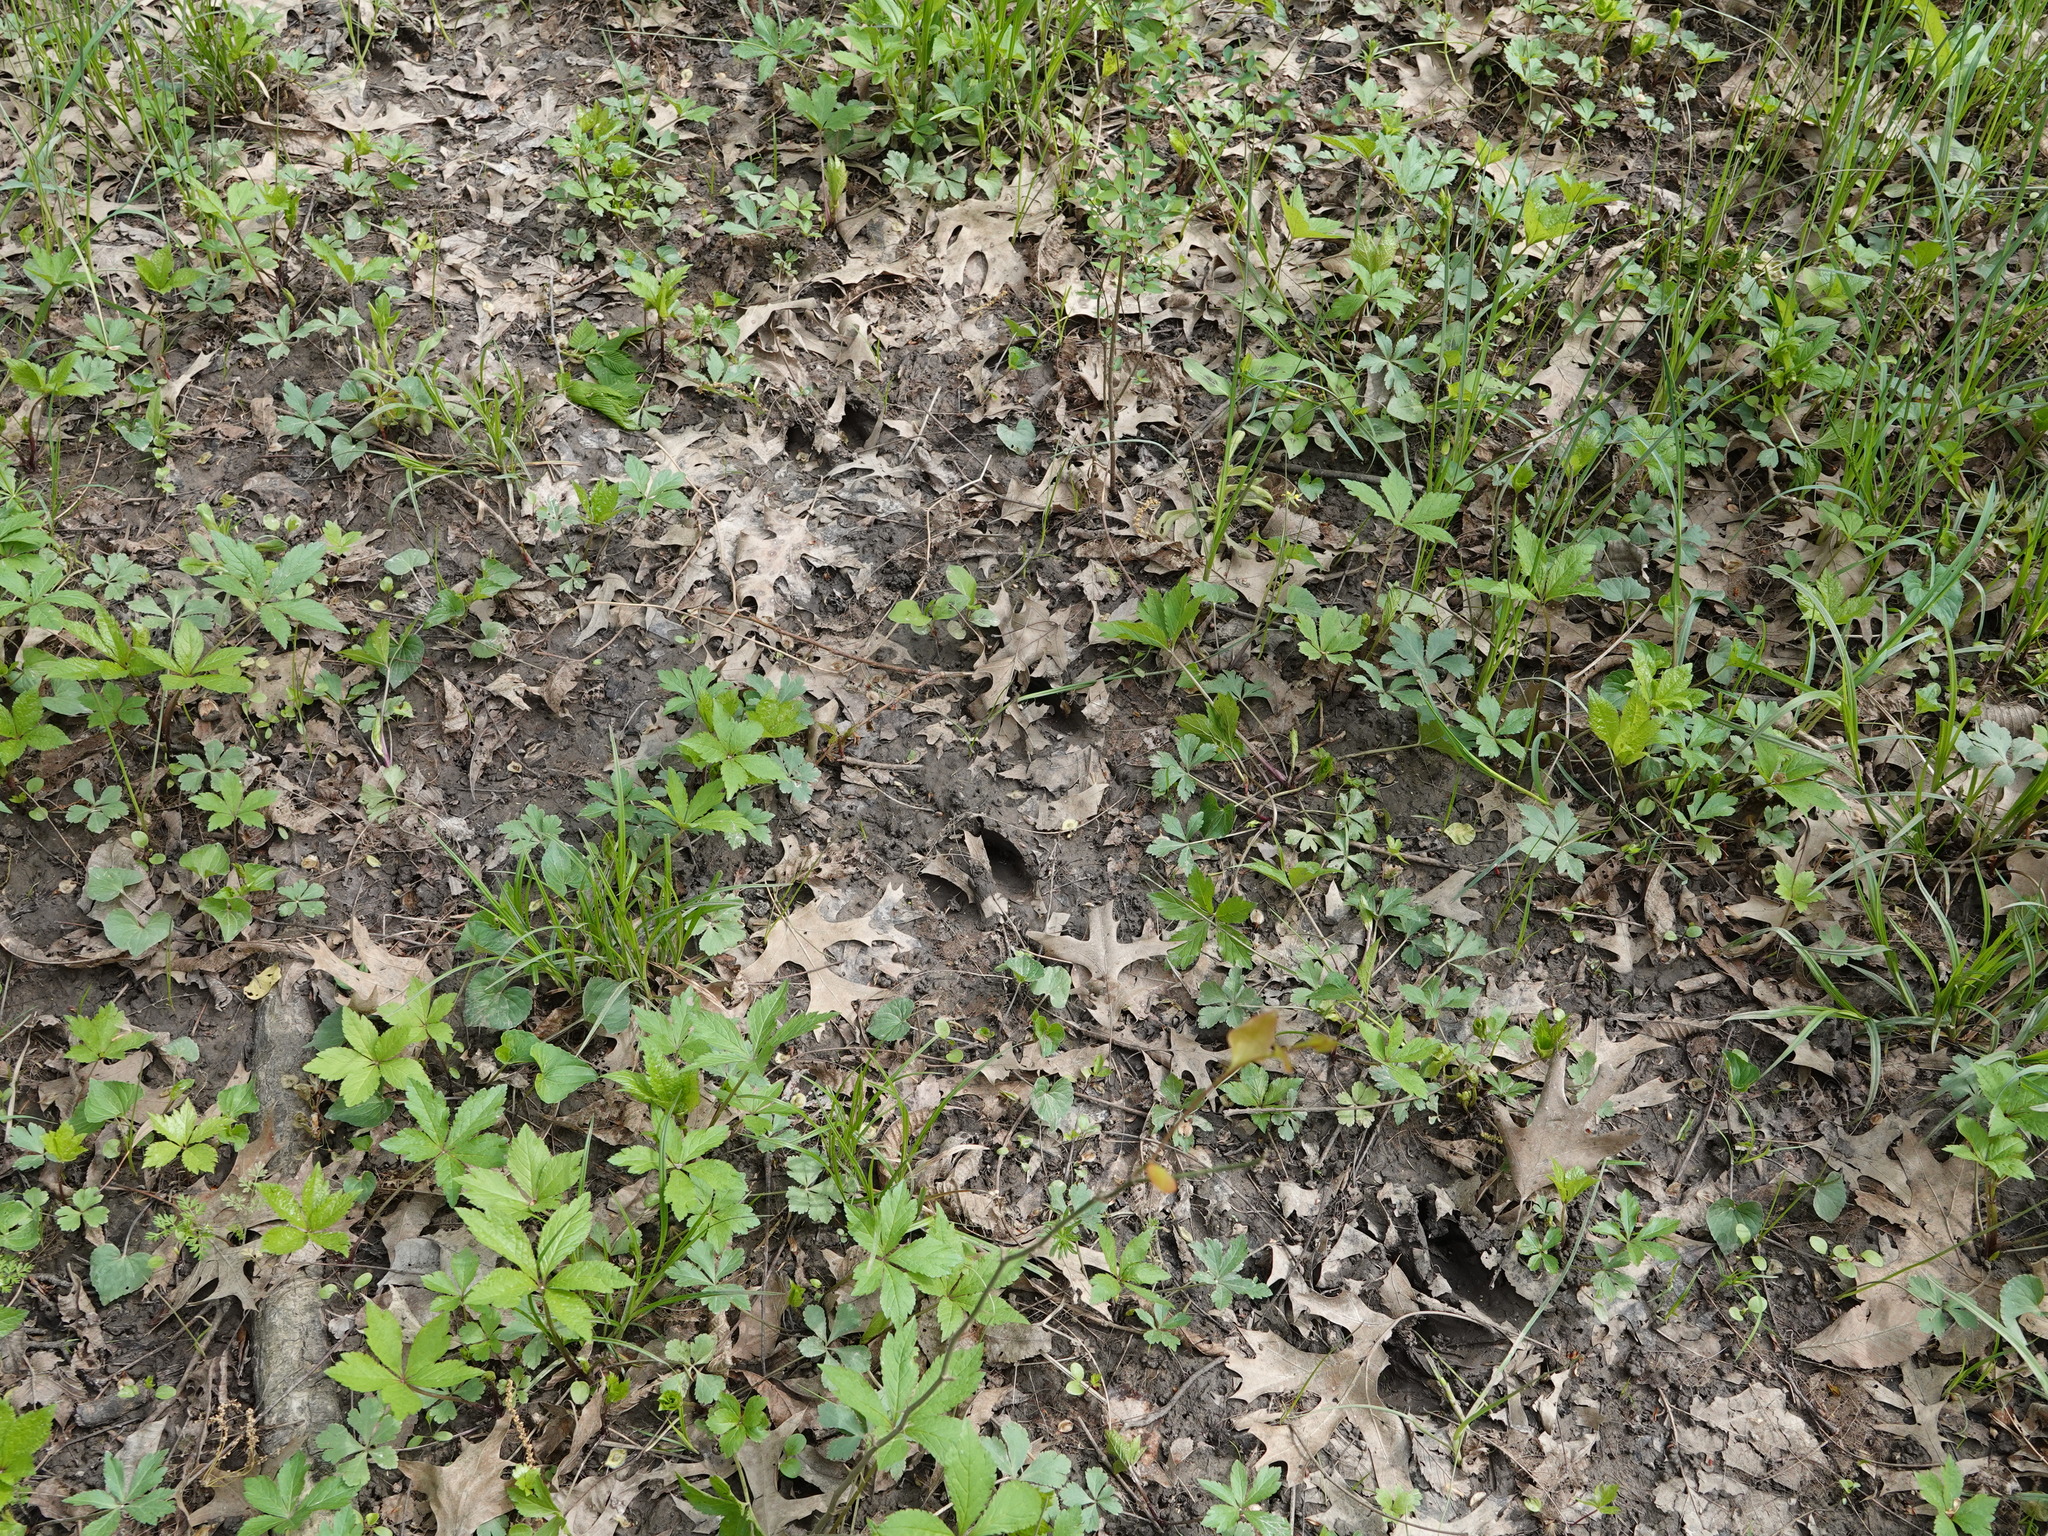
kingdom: Animalia
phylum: Chordata
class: Mammalia
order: Artiodactyla
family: Cervidae
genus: Odocoileus
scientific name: Odocoileus virginianus
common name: White-tailed deer
